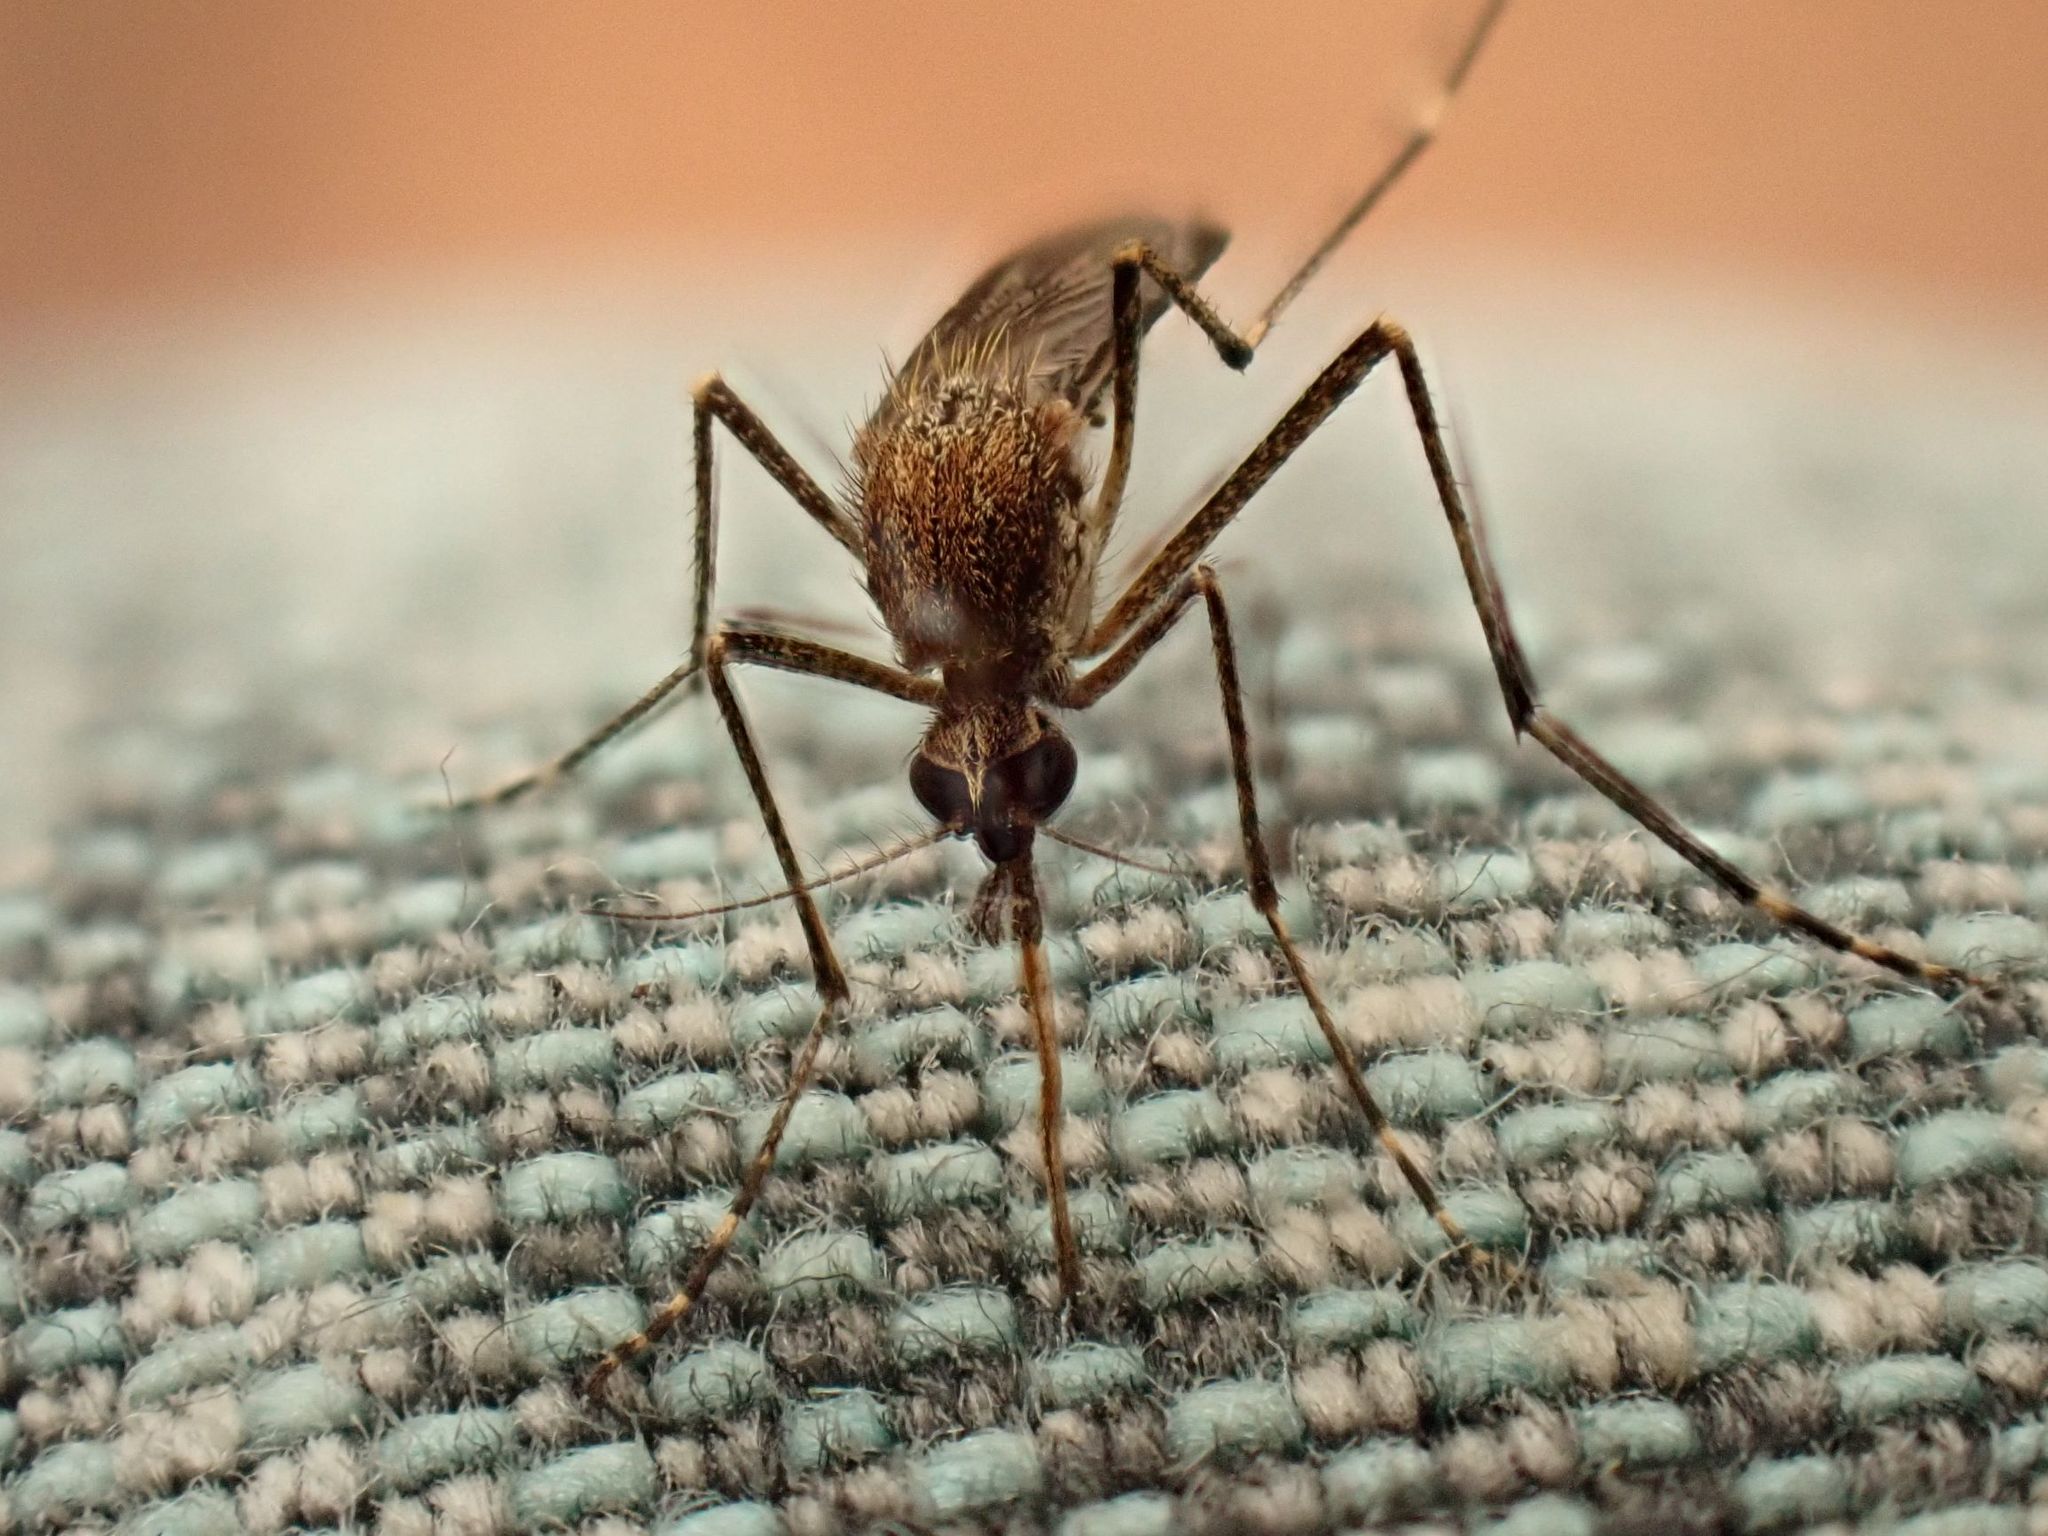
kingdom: Animalia
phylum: Arthropoda
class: Insecta
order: Diptera
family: Culicidae
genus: Aedes
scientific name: Aedes camptorhynchus
